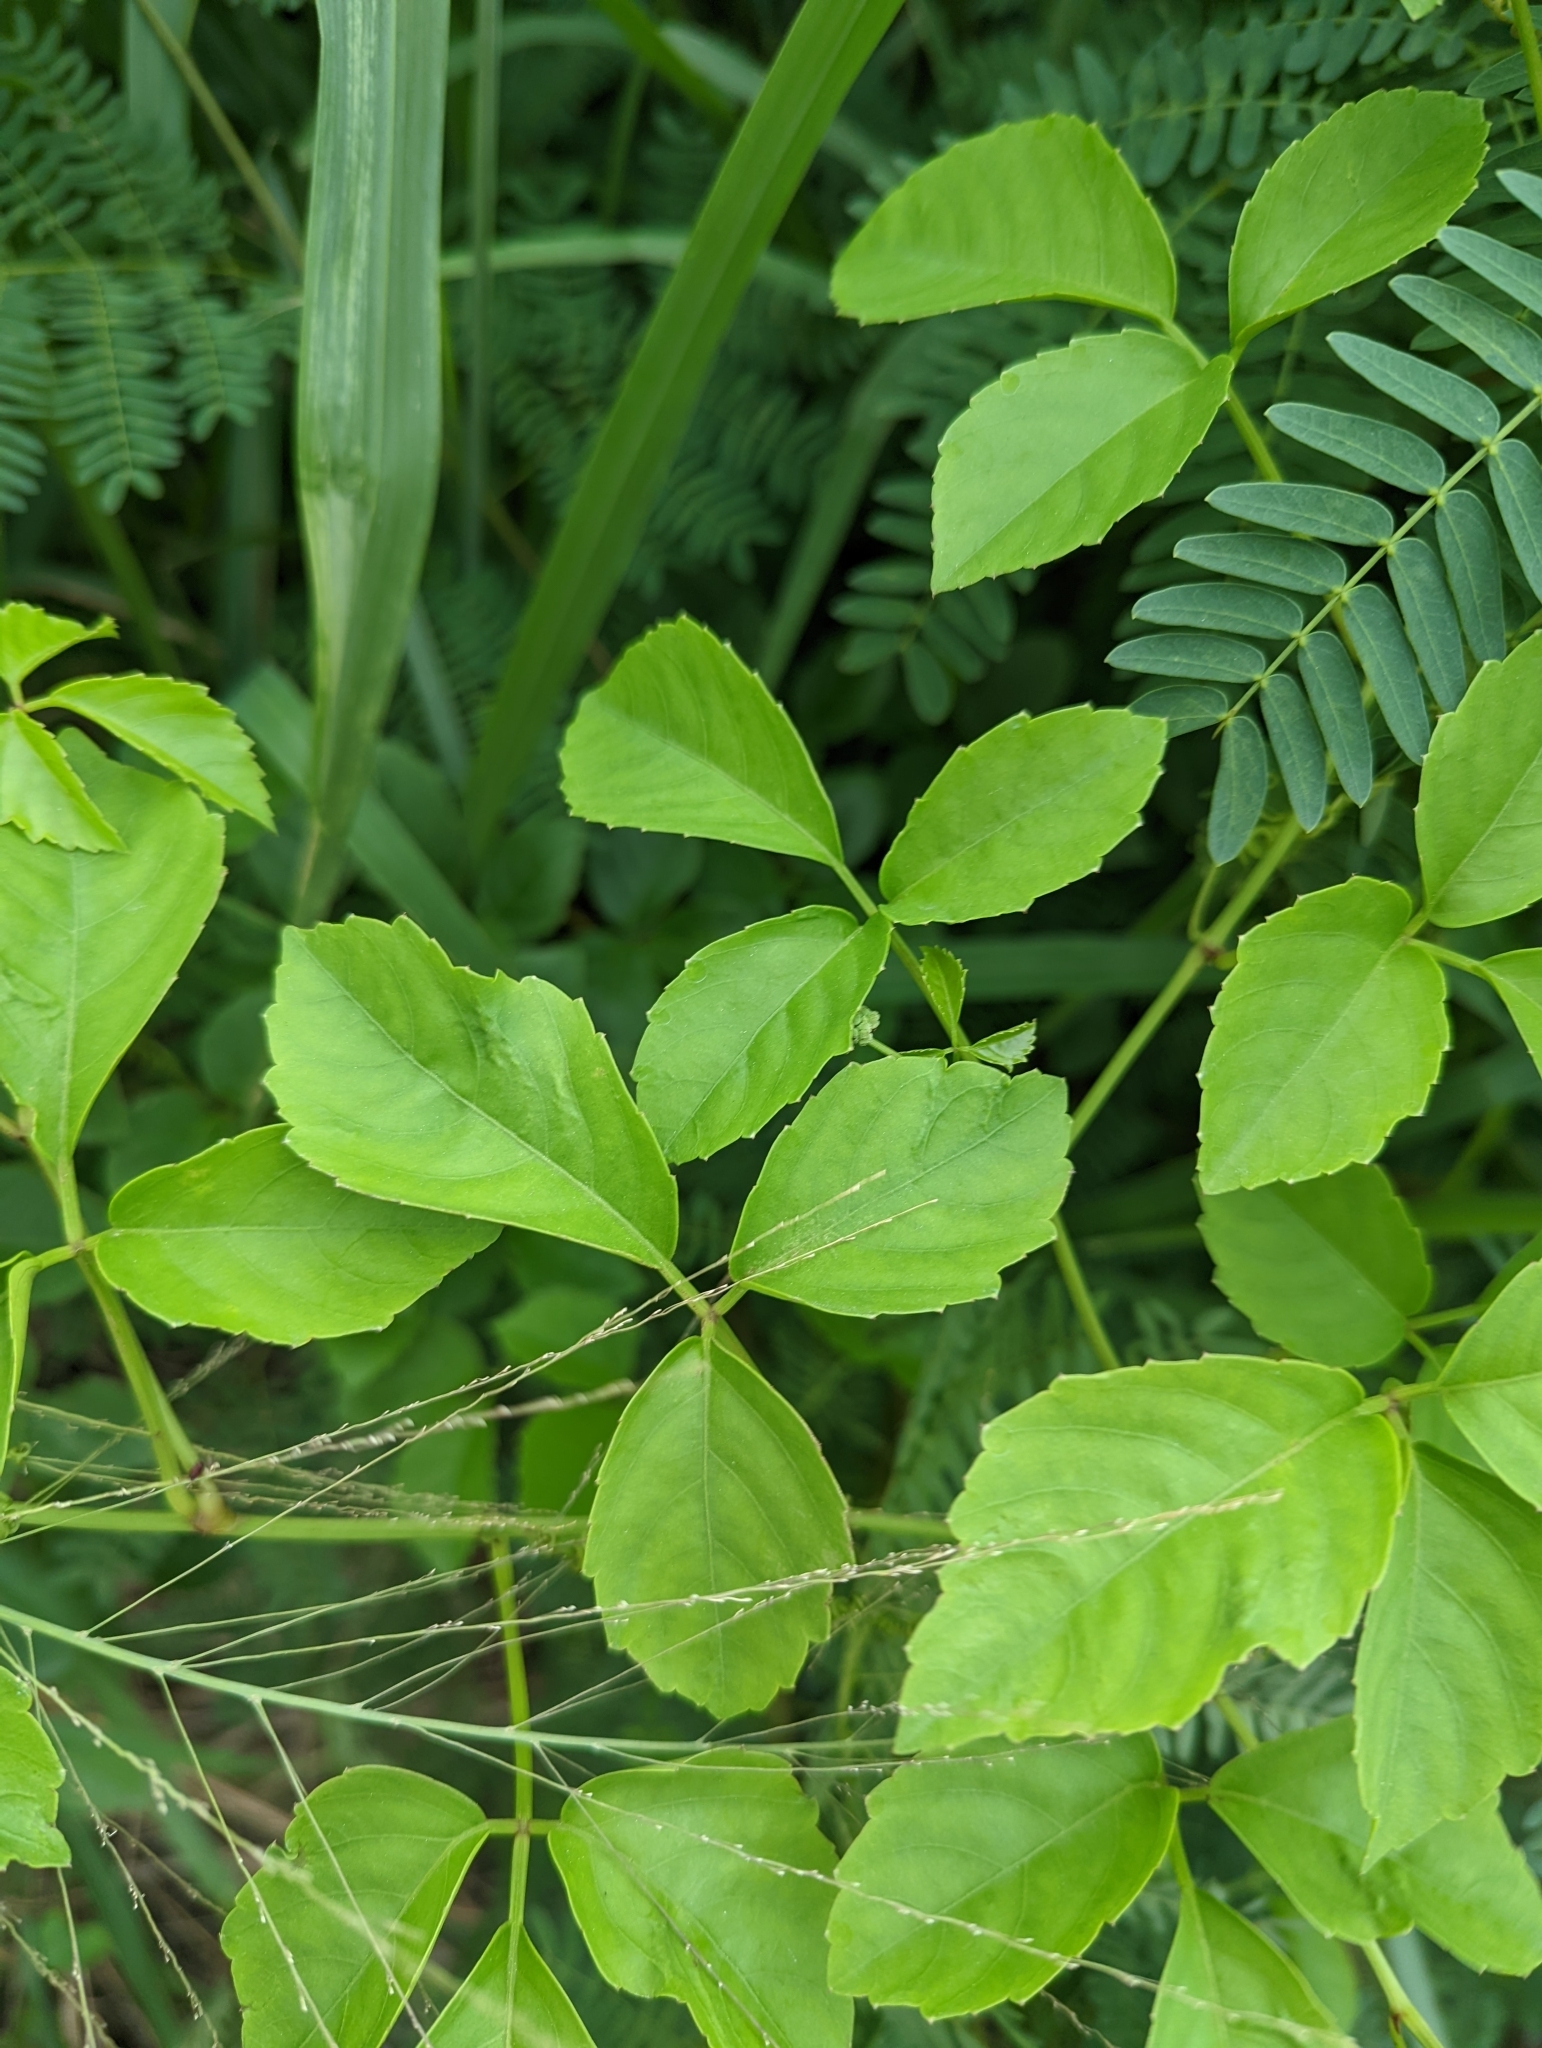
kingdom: Plantae
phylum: Tracheophyta
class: Magnoliopsida
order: Vitales
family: Vitaceae
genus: Causonis
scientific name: Causonis trifolia
